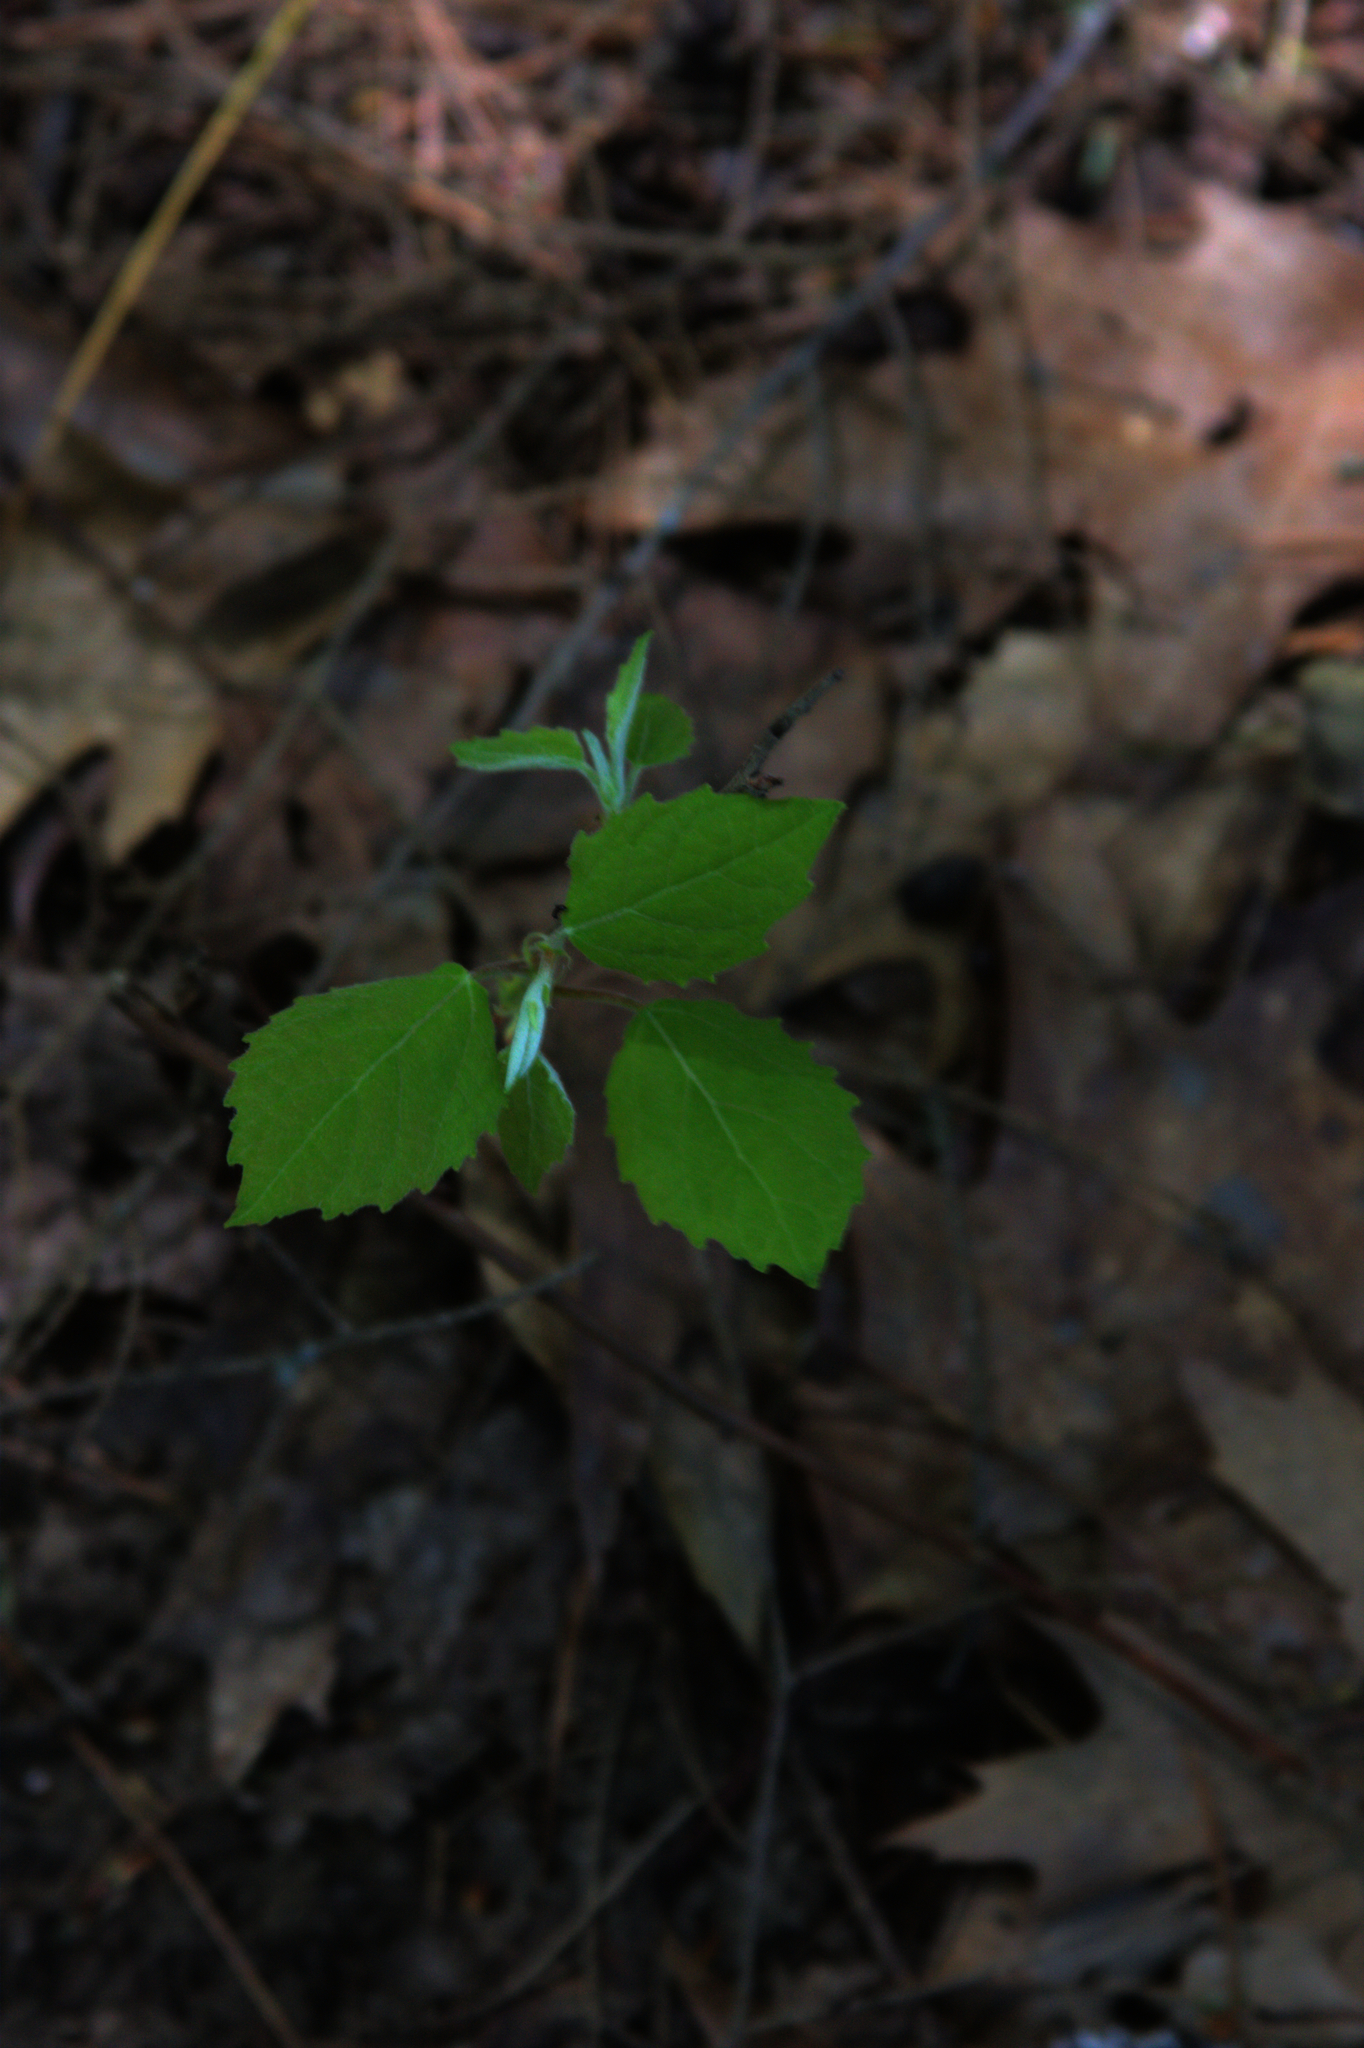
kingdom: Plantae
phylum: Tracheophyta
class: Magnoliopsida
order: Malpighiales
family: Salicaceae
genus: Populus
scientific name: Populus grandidentata
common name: Bigtooth aspen
